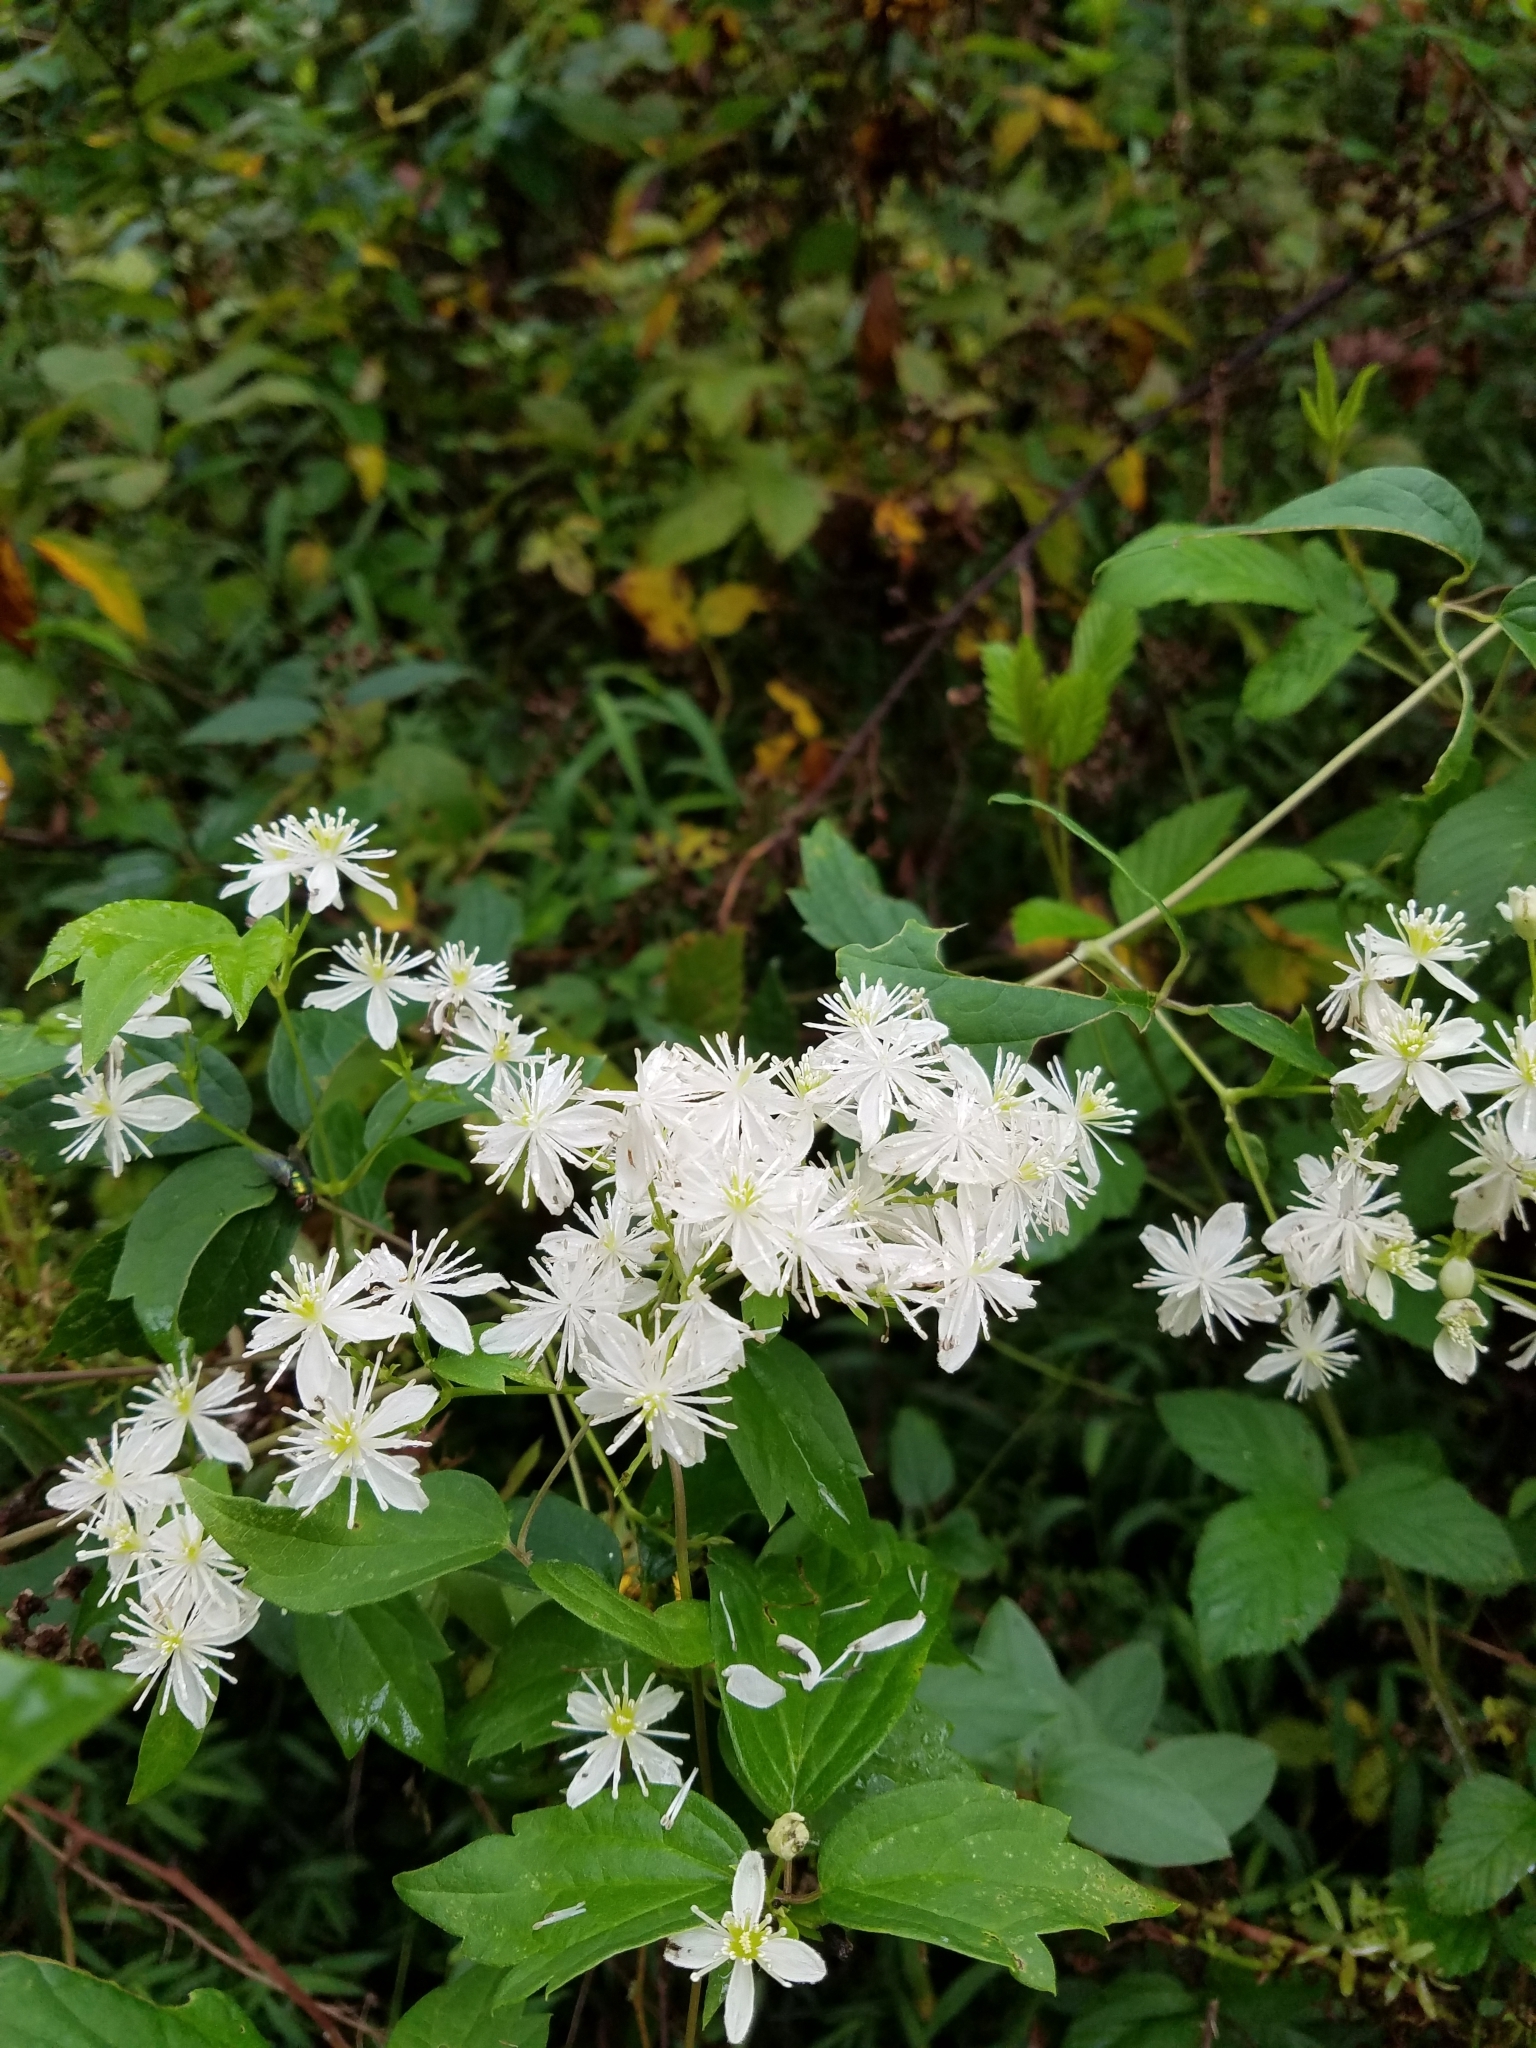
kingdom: Plantae
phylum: Tracheophyta
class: Magnoliopsida
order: Ranunculales
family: Ranunculaceae
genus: Clematis
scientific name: Clematis virginiana
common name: Virgin's-bower
